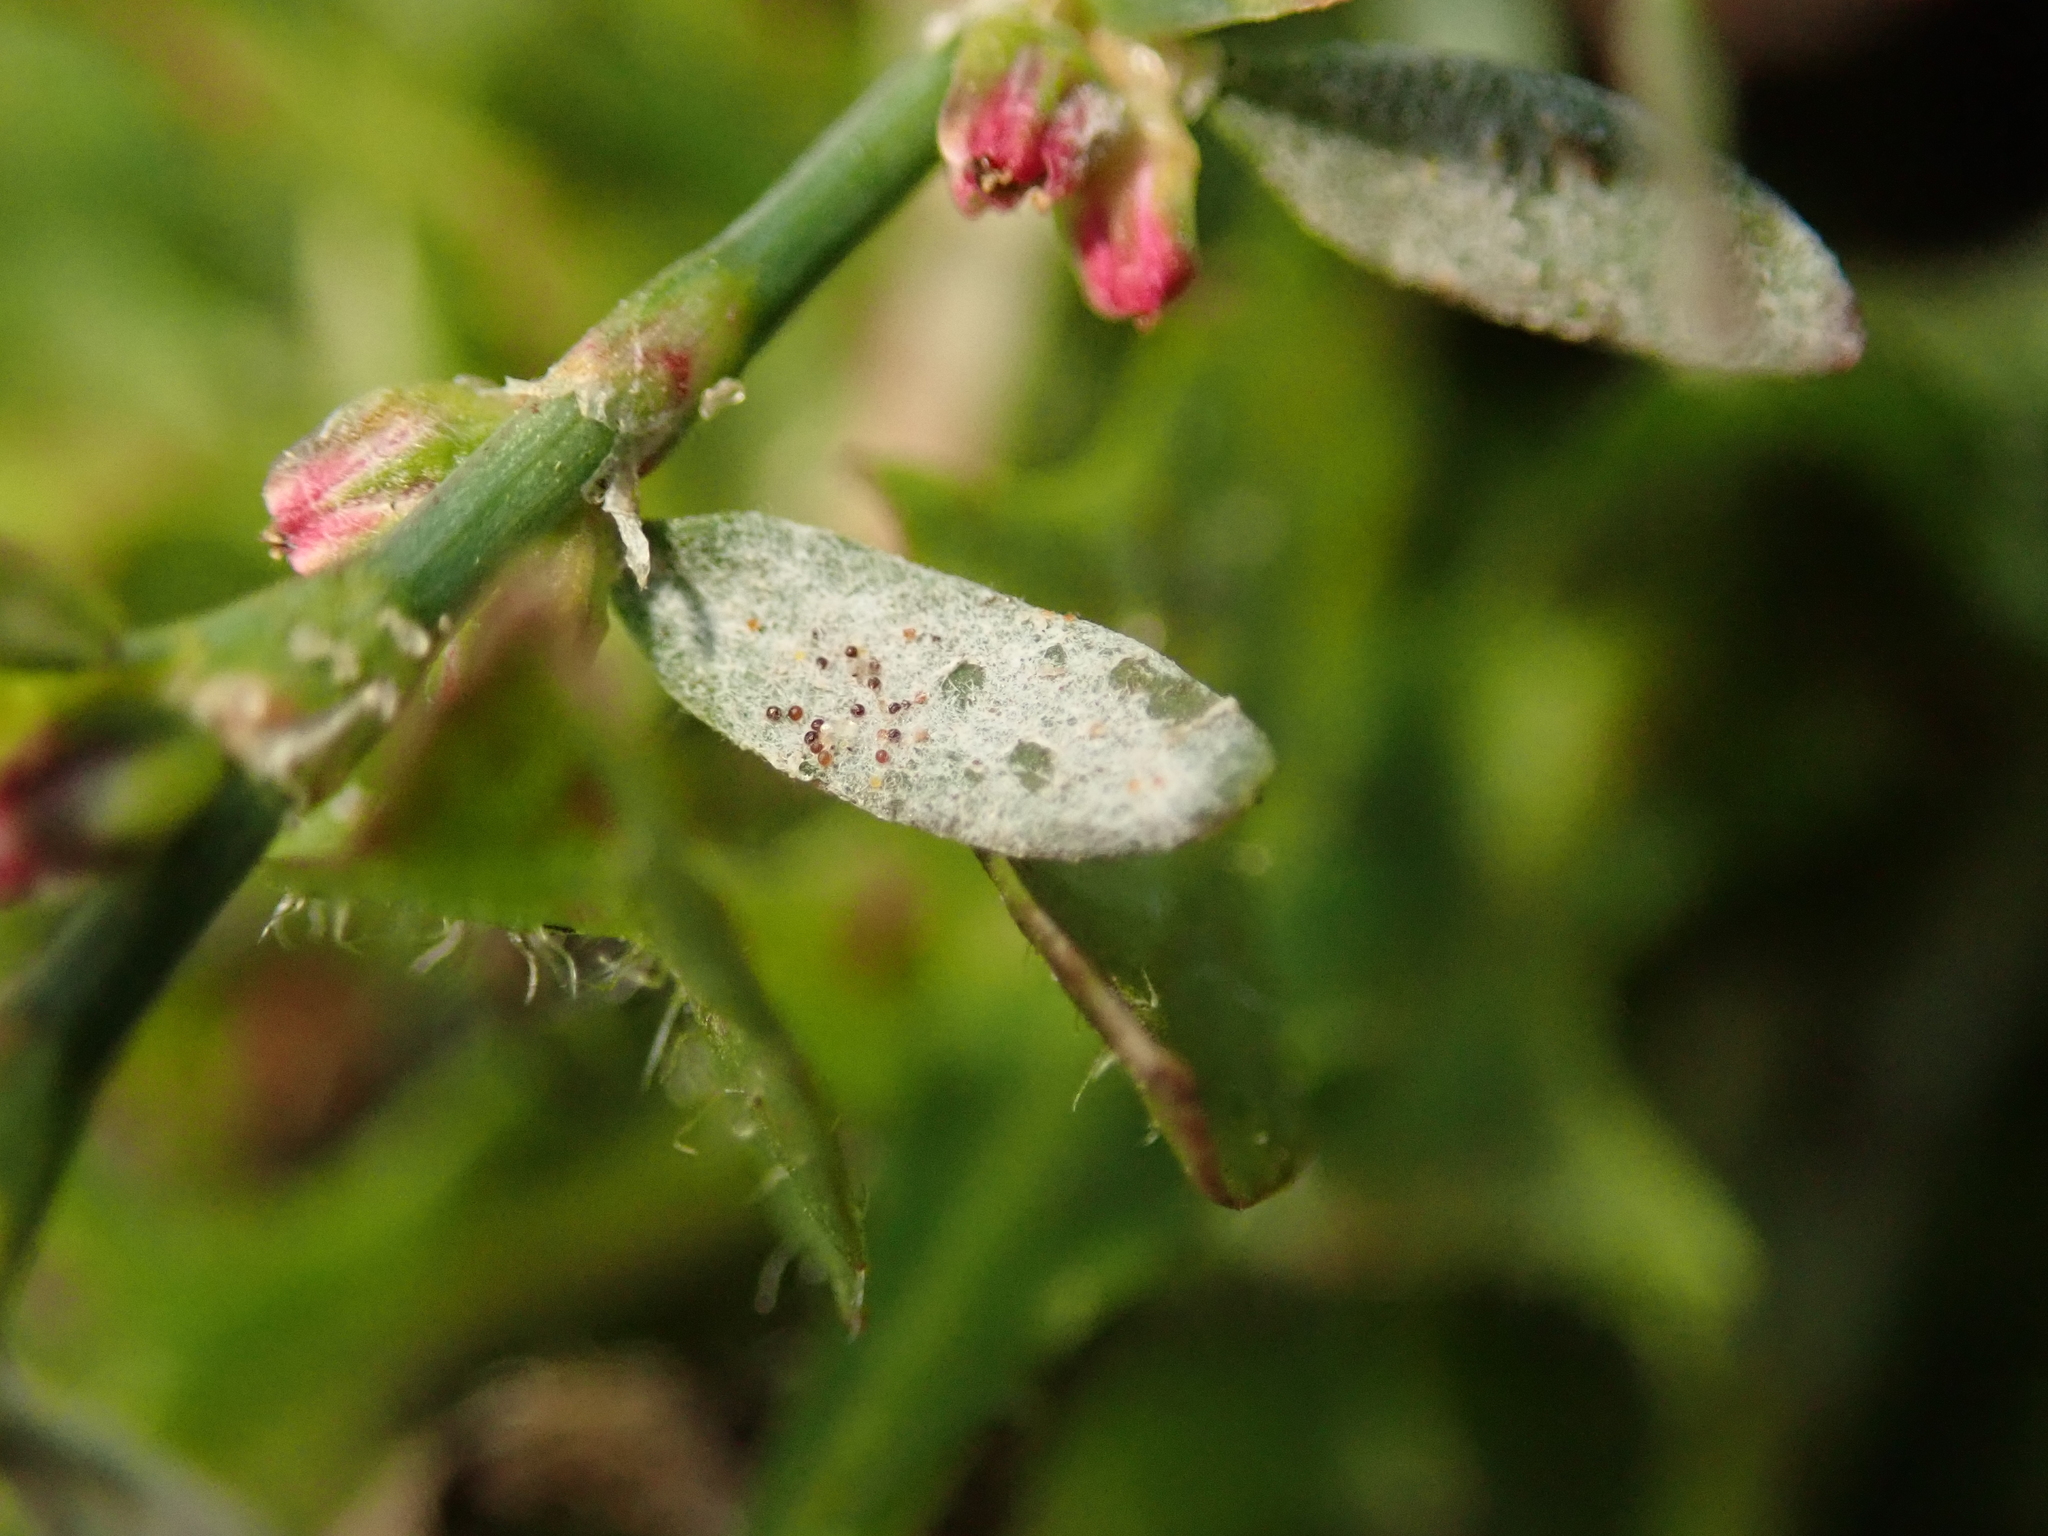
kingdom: Fungi
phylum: Ascomycota
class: Leotiomycetes
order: Helotiales
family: Erysiphaceae
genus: Erysiphe
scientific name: Erysiphe polygoni
